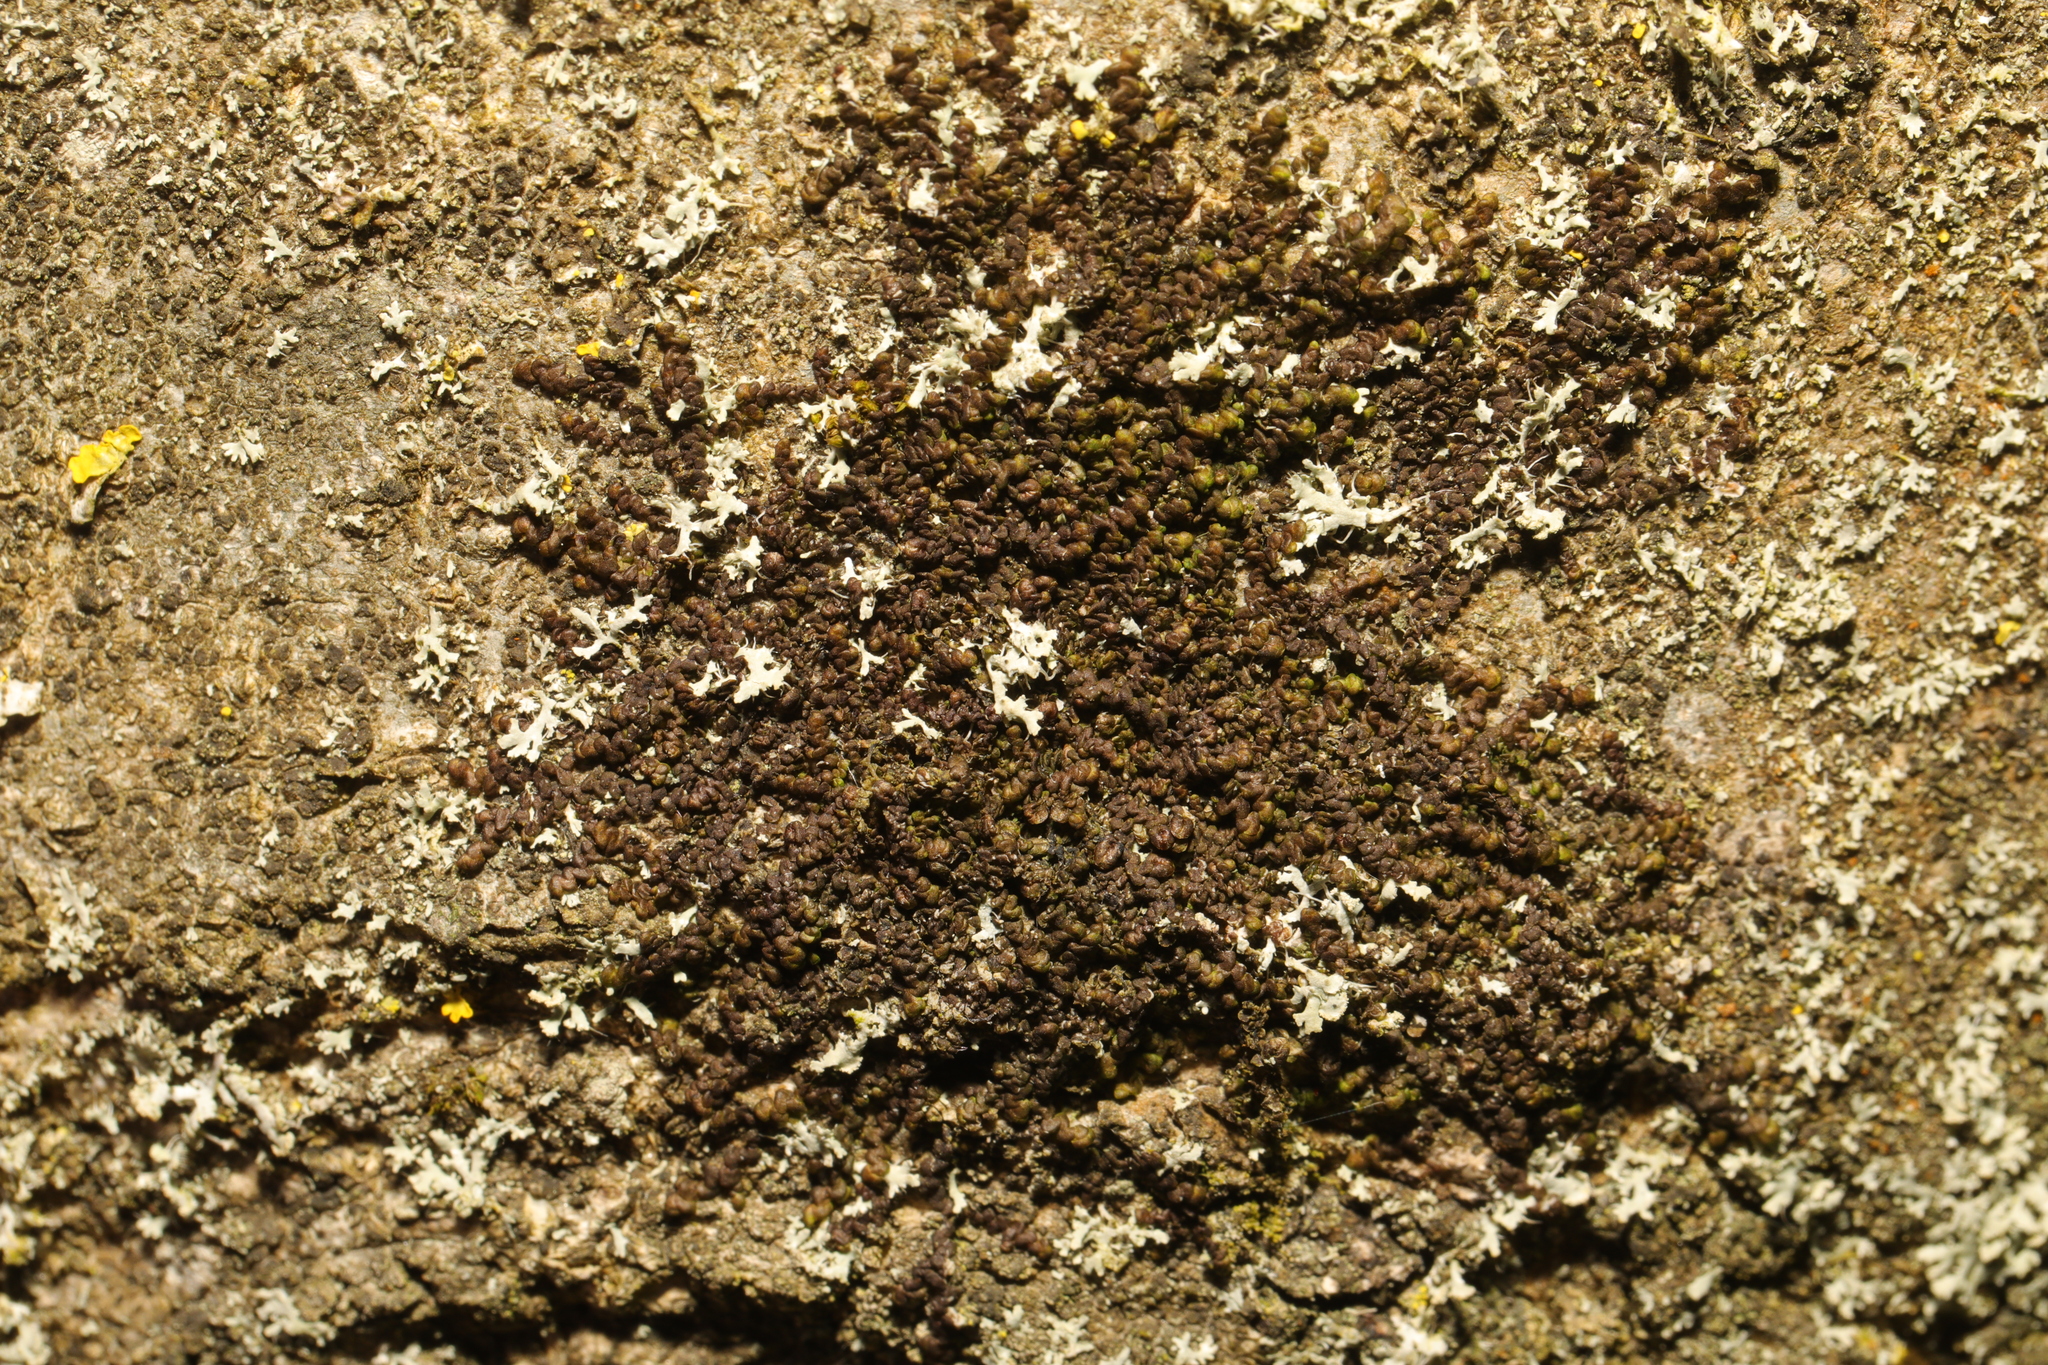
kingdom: Plantae
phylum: Marchantiophyta
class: Jungermanniopsida
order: Porellales
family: Frullaniaceae
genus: Frullania
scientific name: Frullania dilatata
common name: Dilated scalewort
